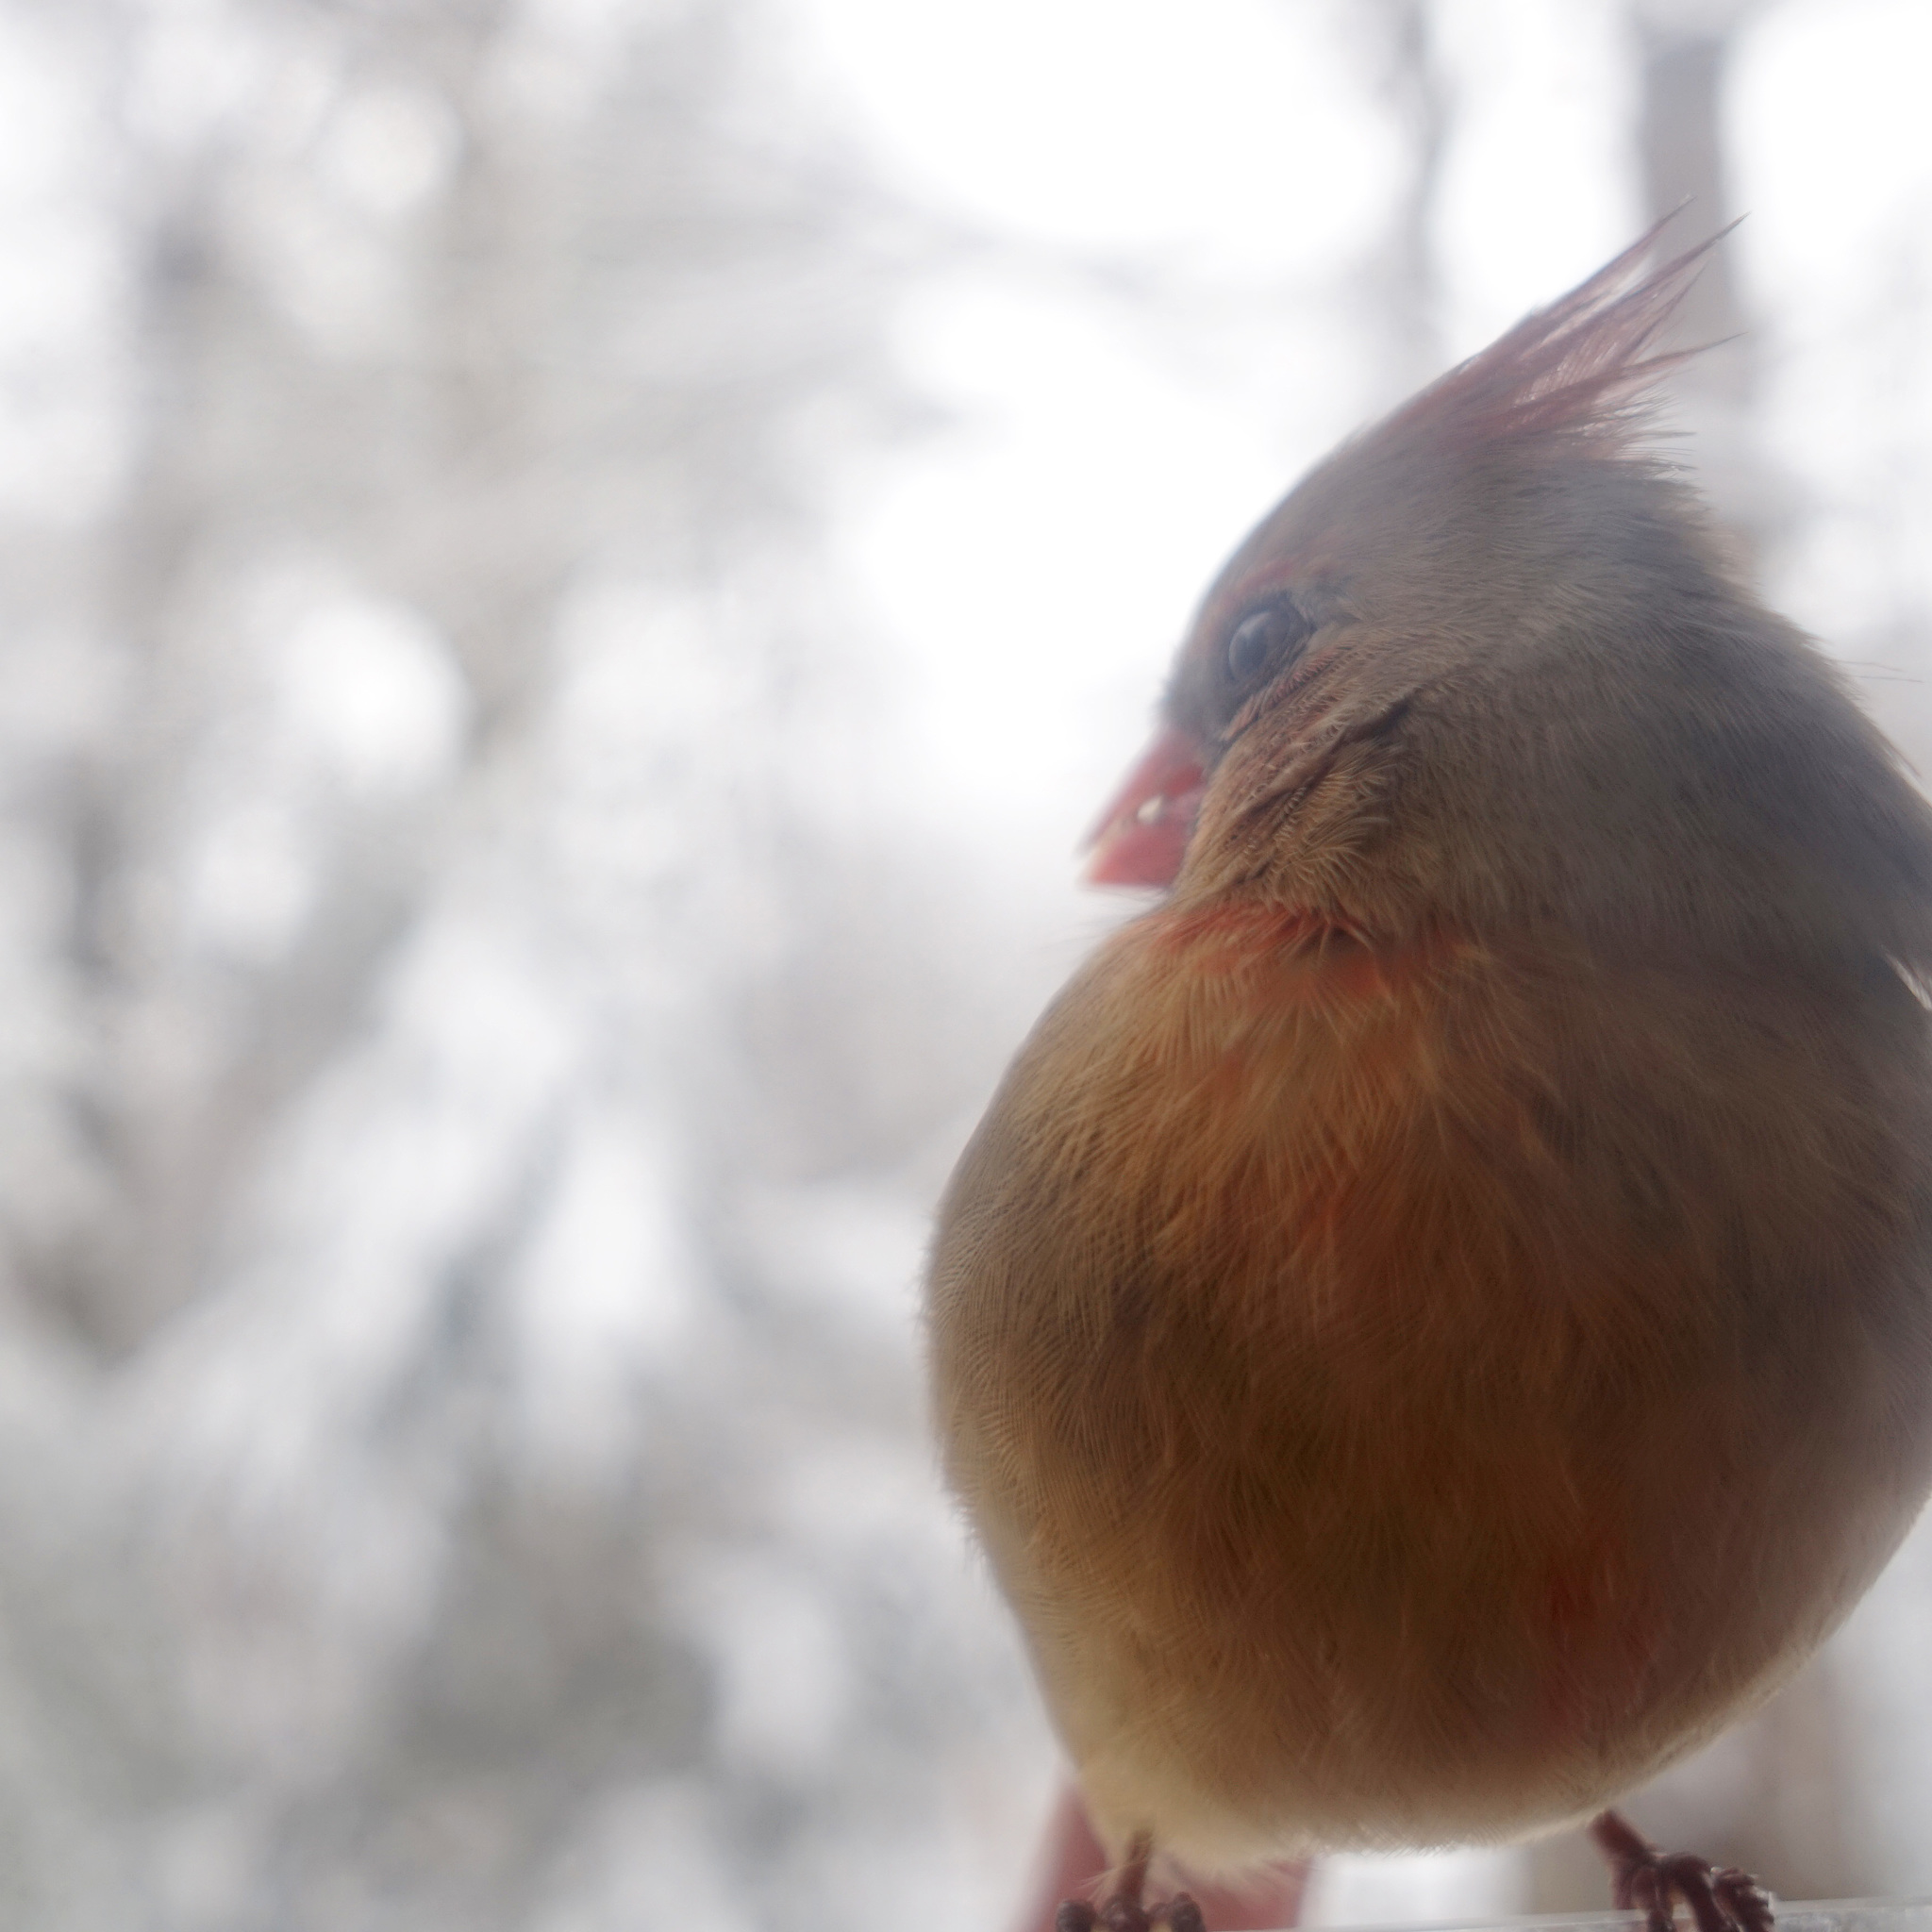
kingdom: Animalia
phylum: Chordata
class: Aves
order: Passeriformes
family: Cardinalidae
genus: Cardinalis
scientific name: Cardinalis cardinalis
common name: Northern cardinal
